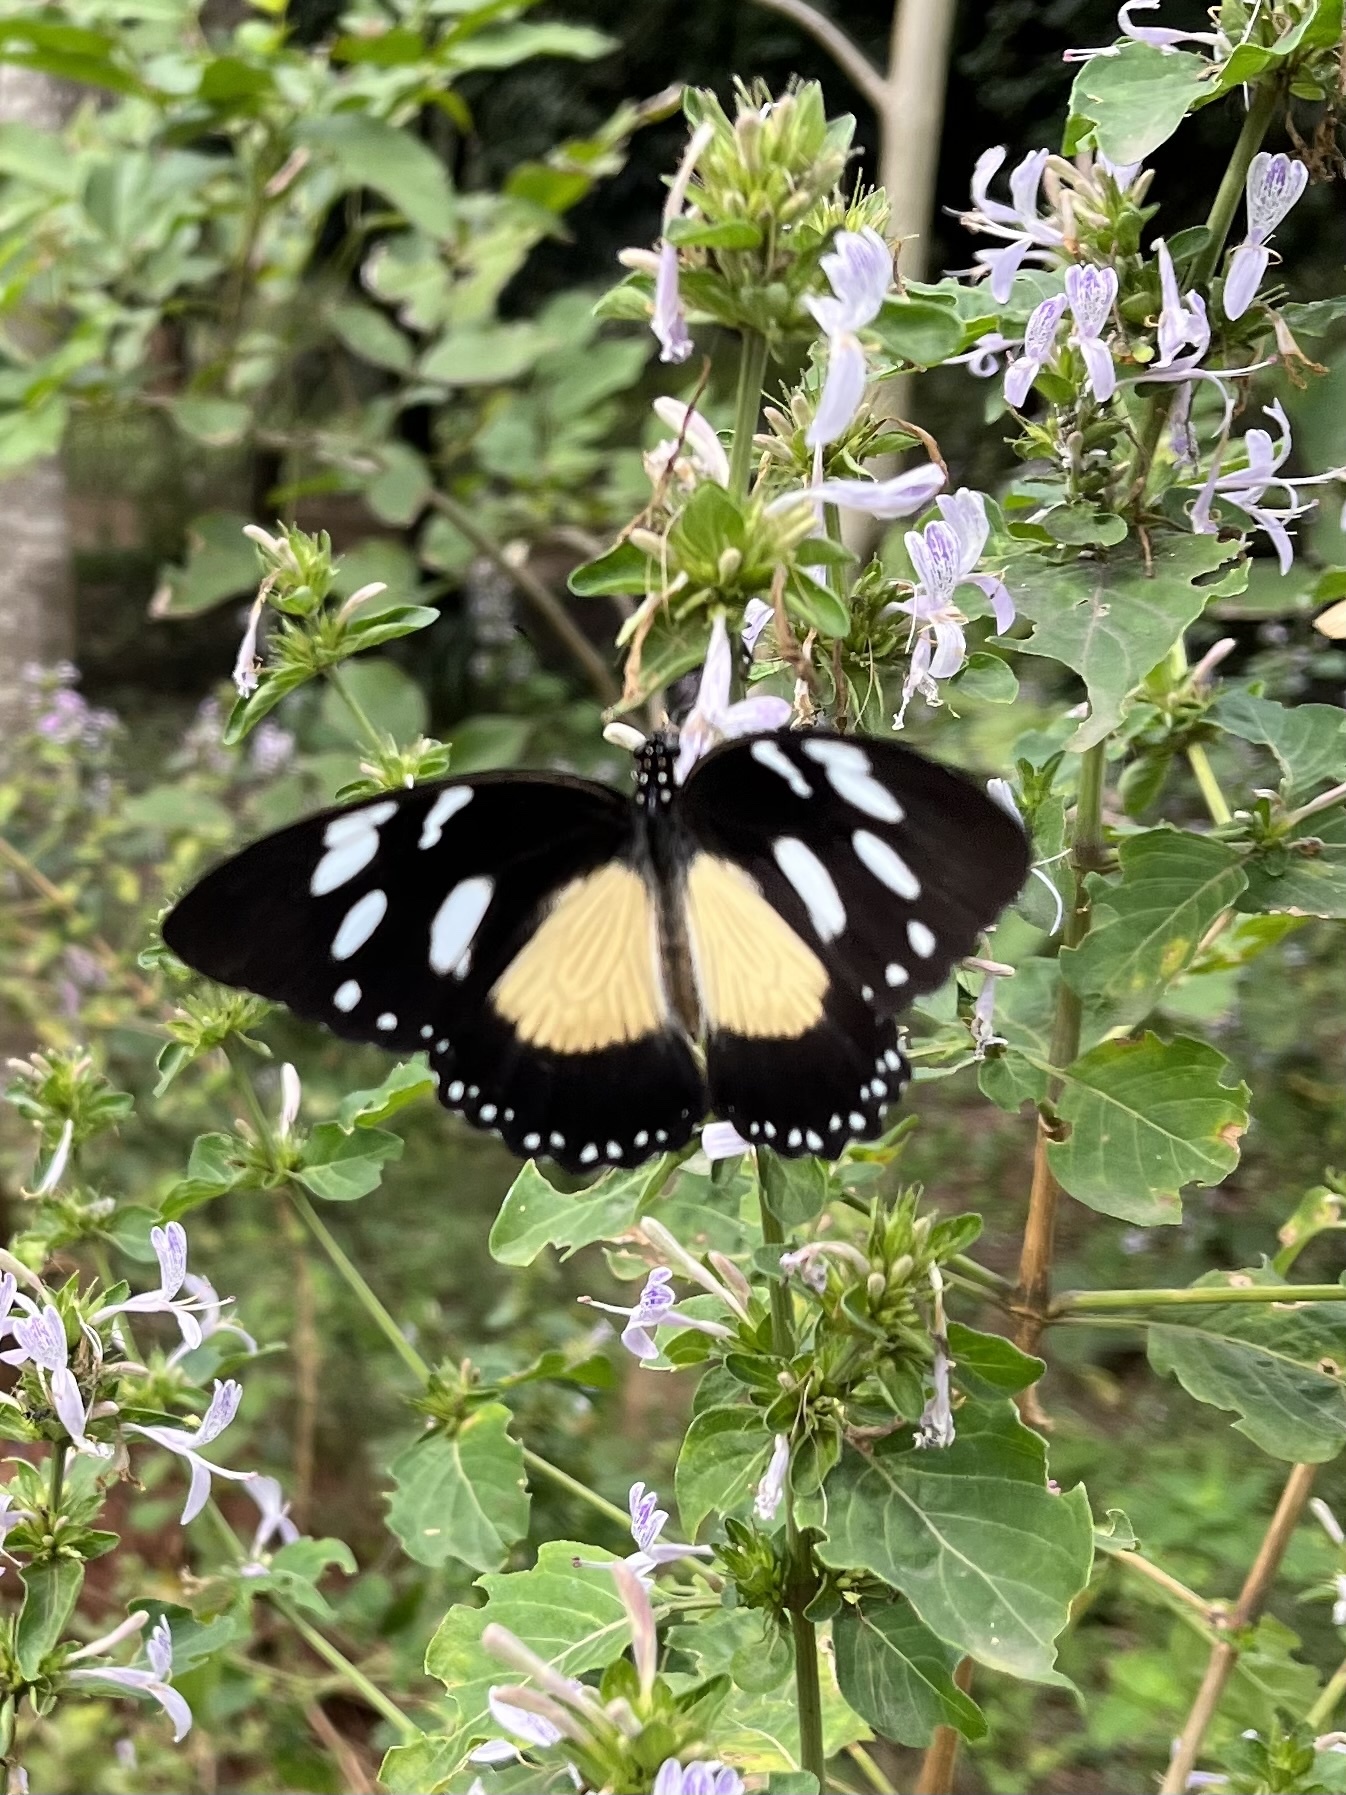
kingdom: Animalia
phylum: Arthropoda
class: Insecta
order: Lepidoptera
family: Papilionidae
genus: Papilio
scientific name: Papilio dardanus
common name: Flying handkerchief
